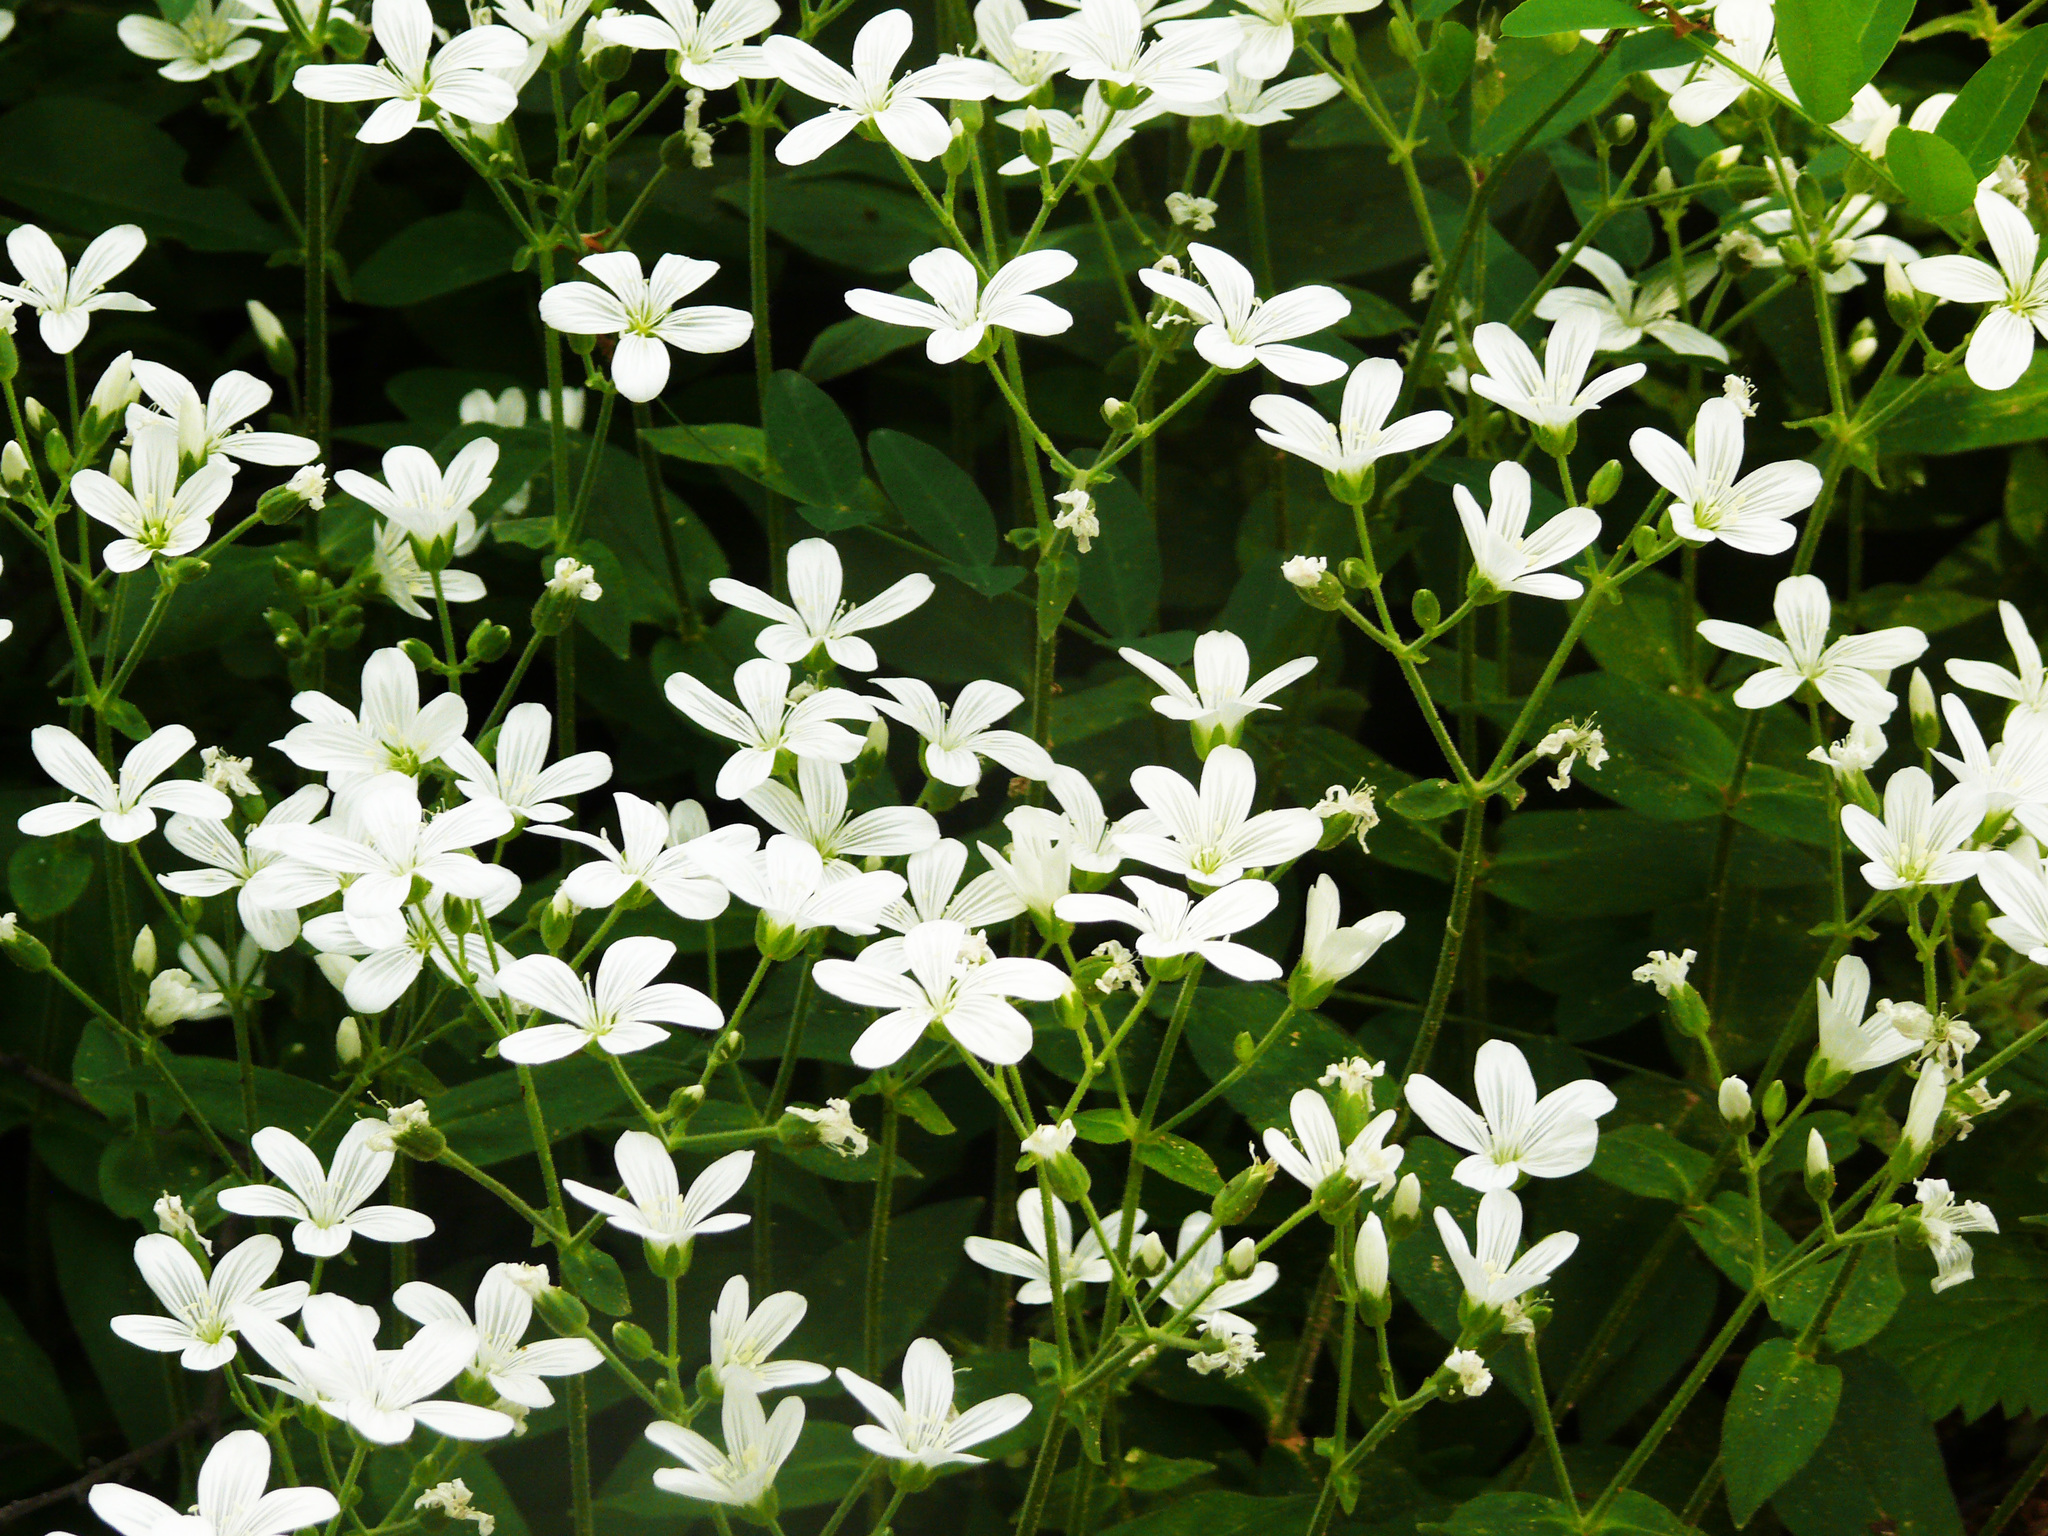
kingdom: Plantae
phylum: Tracheophyta
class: Magnoliopsida
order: Caryophyllales
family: Caryophyllaceae
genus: Cerastium
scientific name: Cerastium pauciflorum
